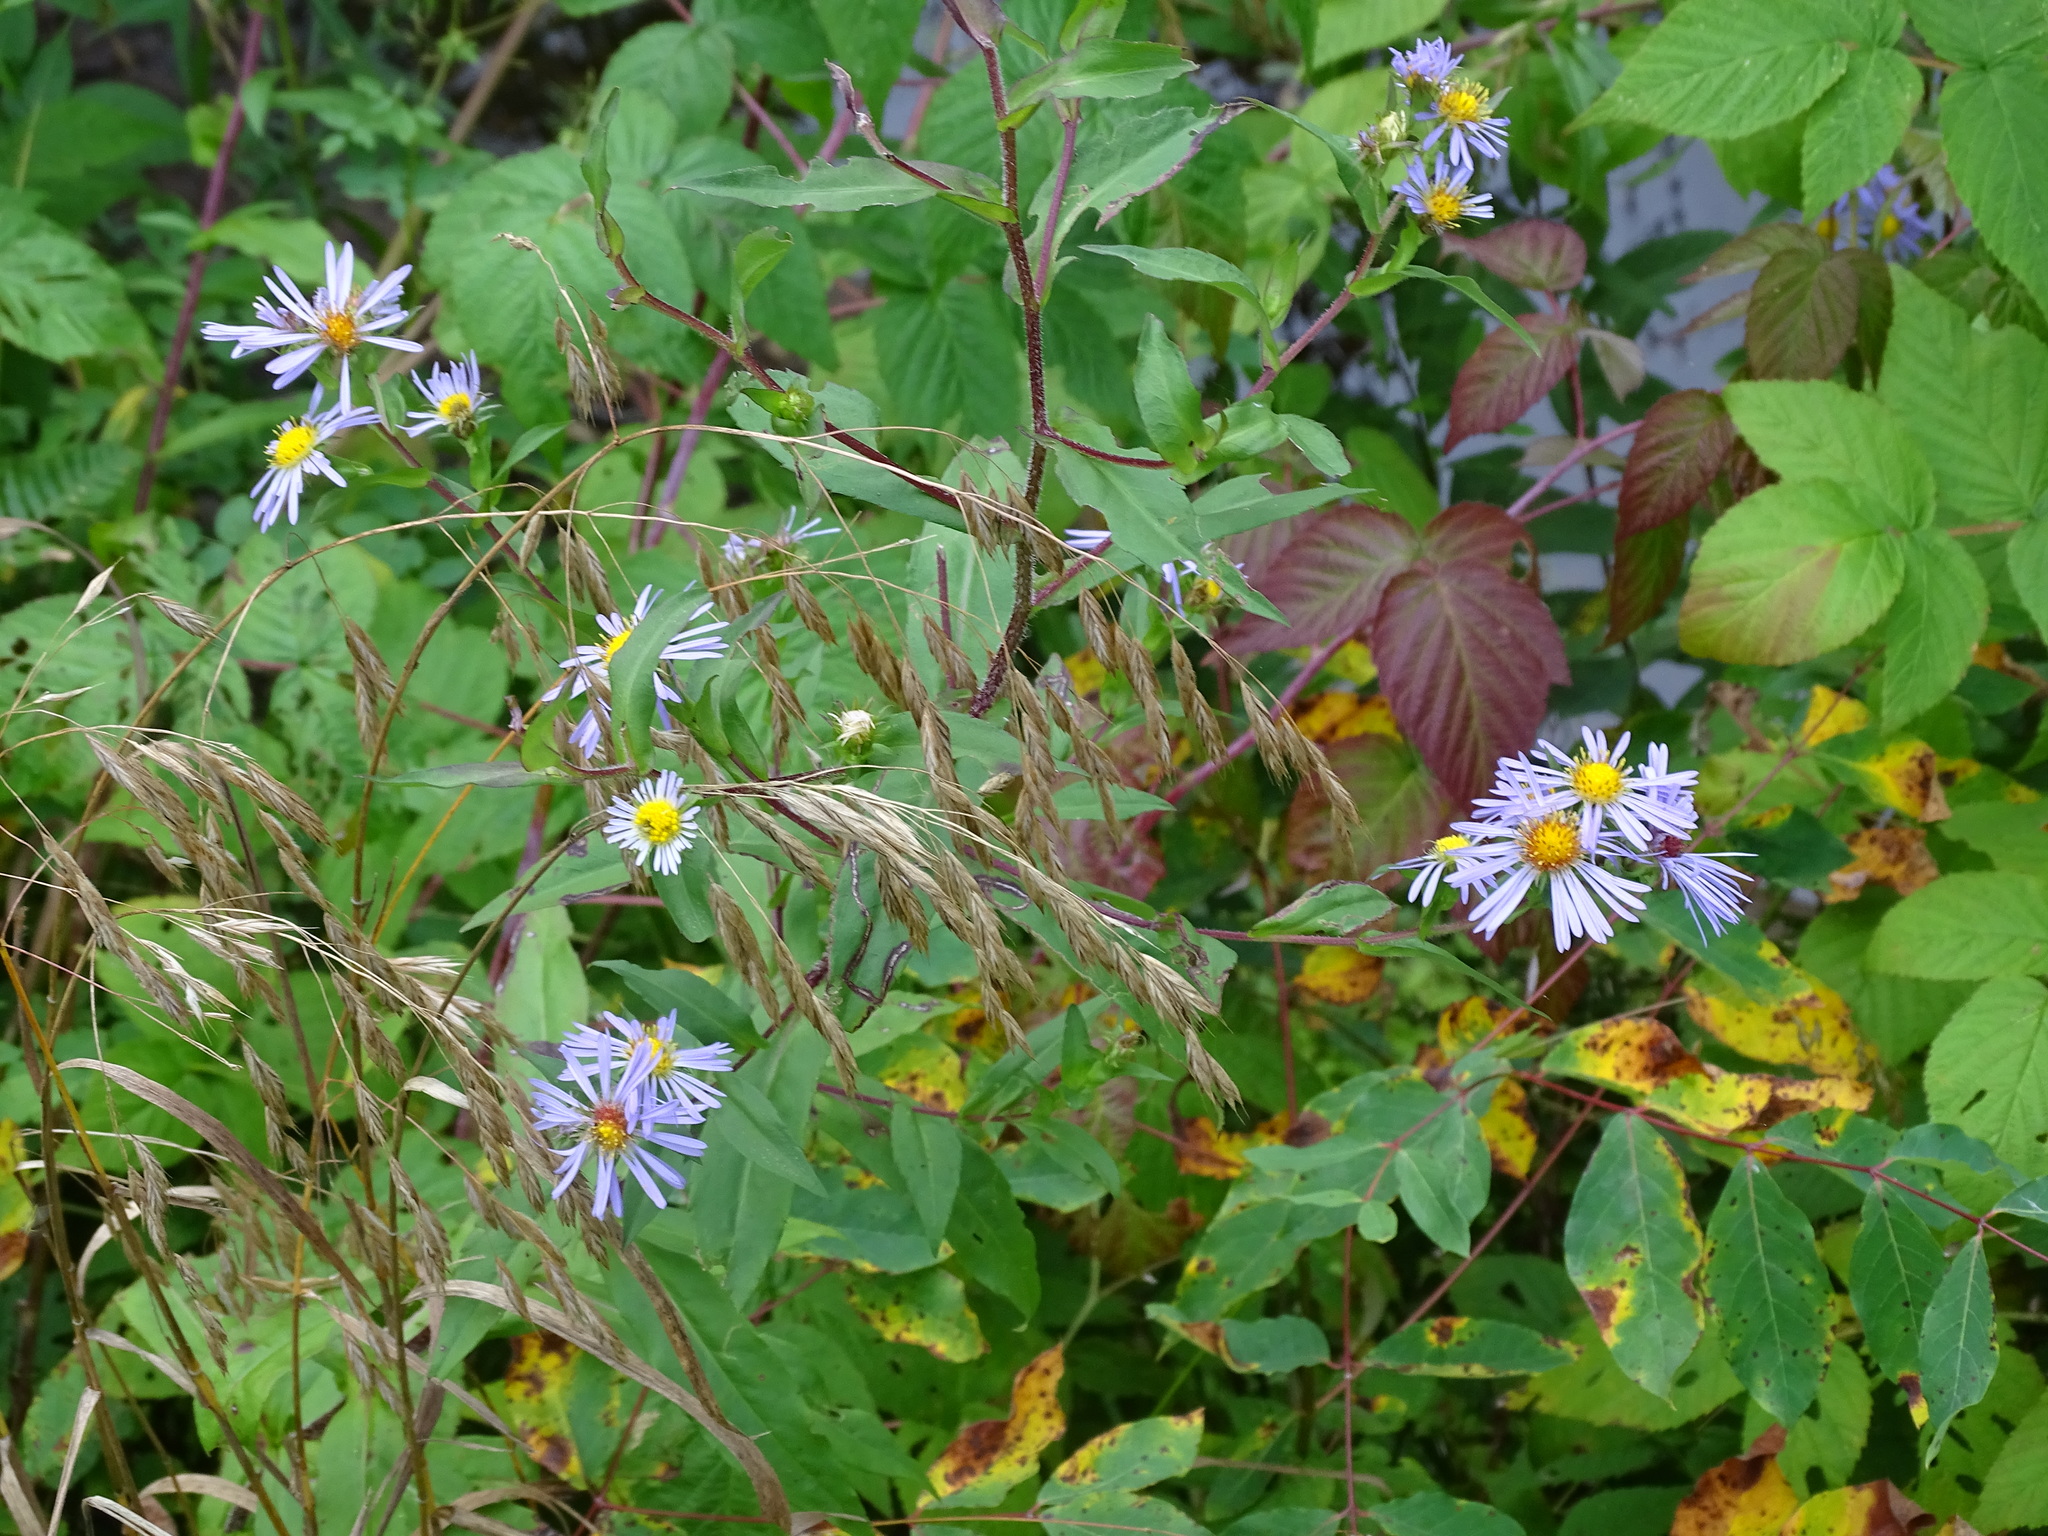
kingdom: Plantae
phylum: Tracheophyta
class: Magnoliopsida
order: Asterales
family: Asteraceae
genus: Symphyotrichum
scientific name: Symphyotrichum puniceum
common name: Bog aster
